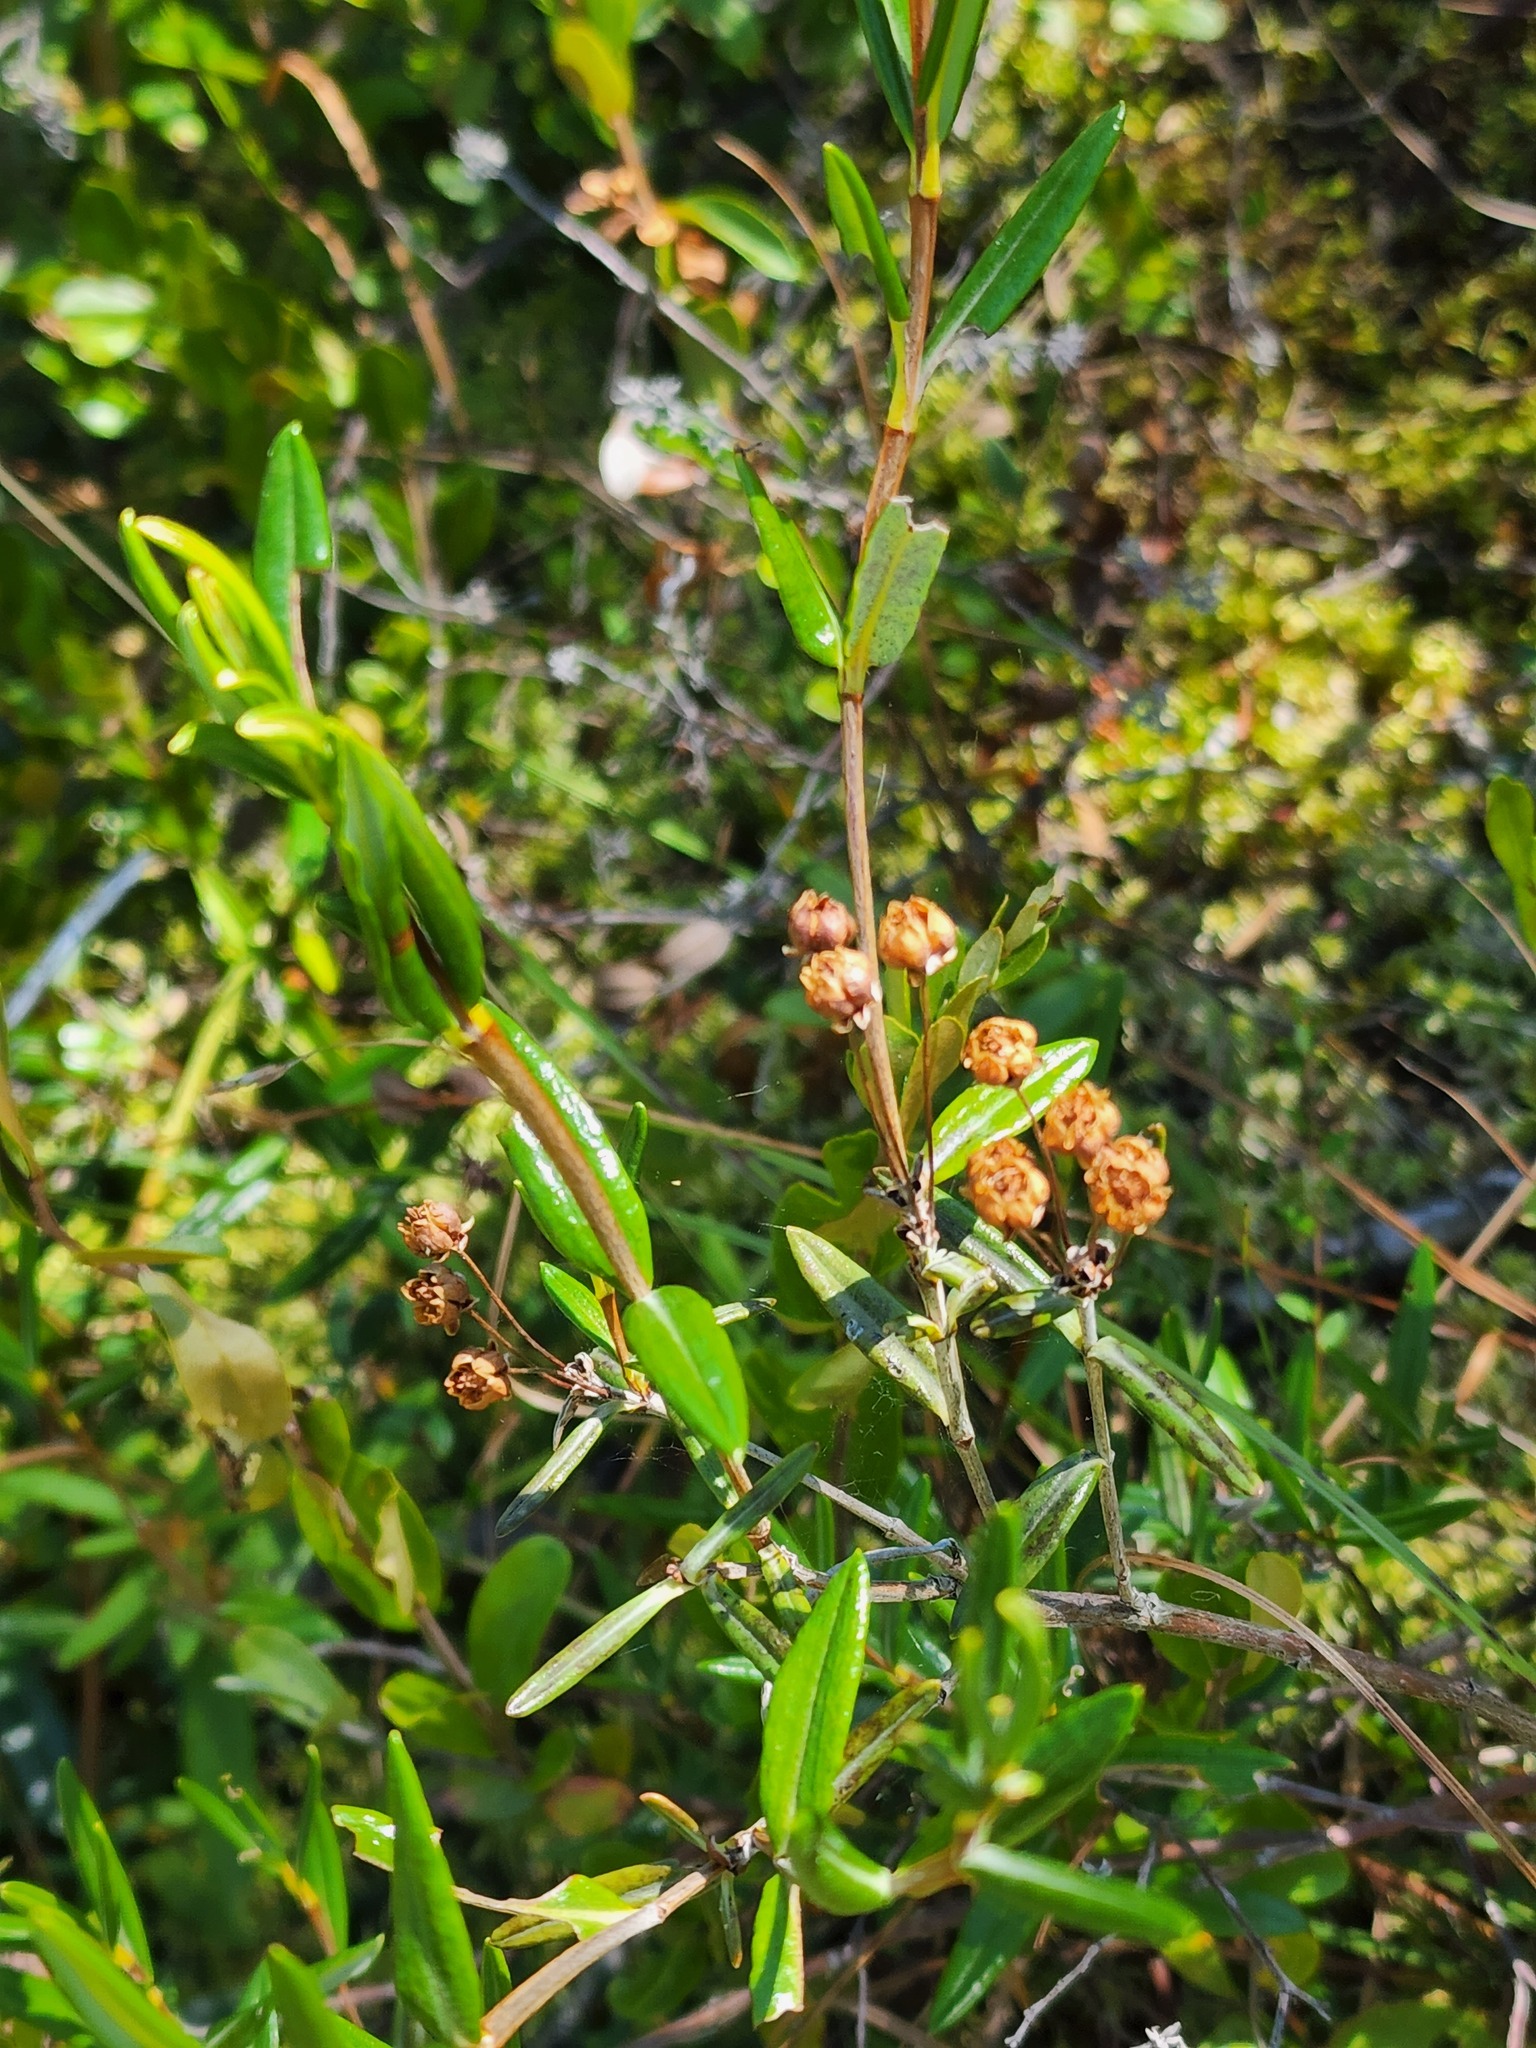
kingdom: Plantae
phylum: Tracheophyta
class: Magnoliopsida
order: Ericales
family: Ericaceae
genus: Kalmia
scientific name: Kalmia polifolia
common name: Bog-laurel
